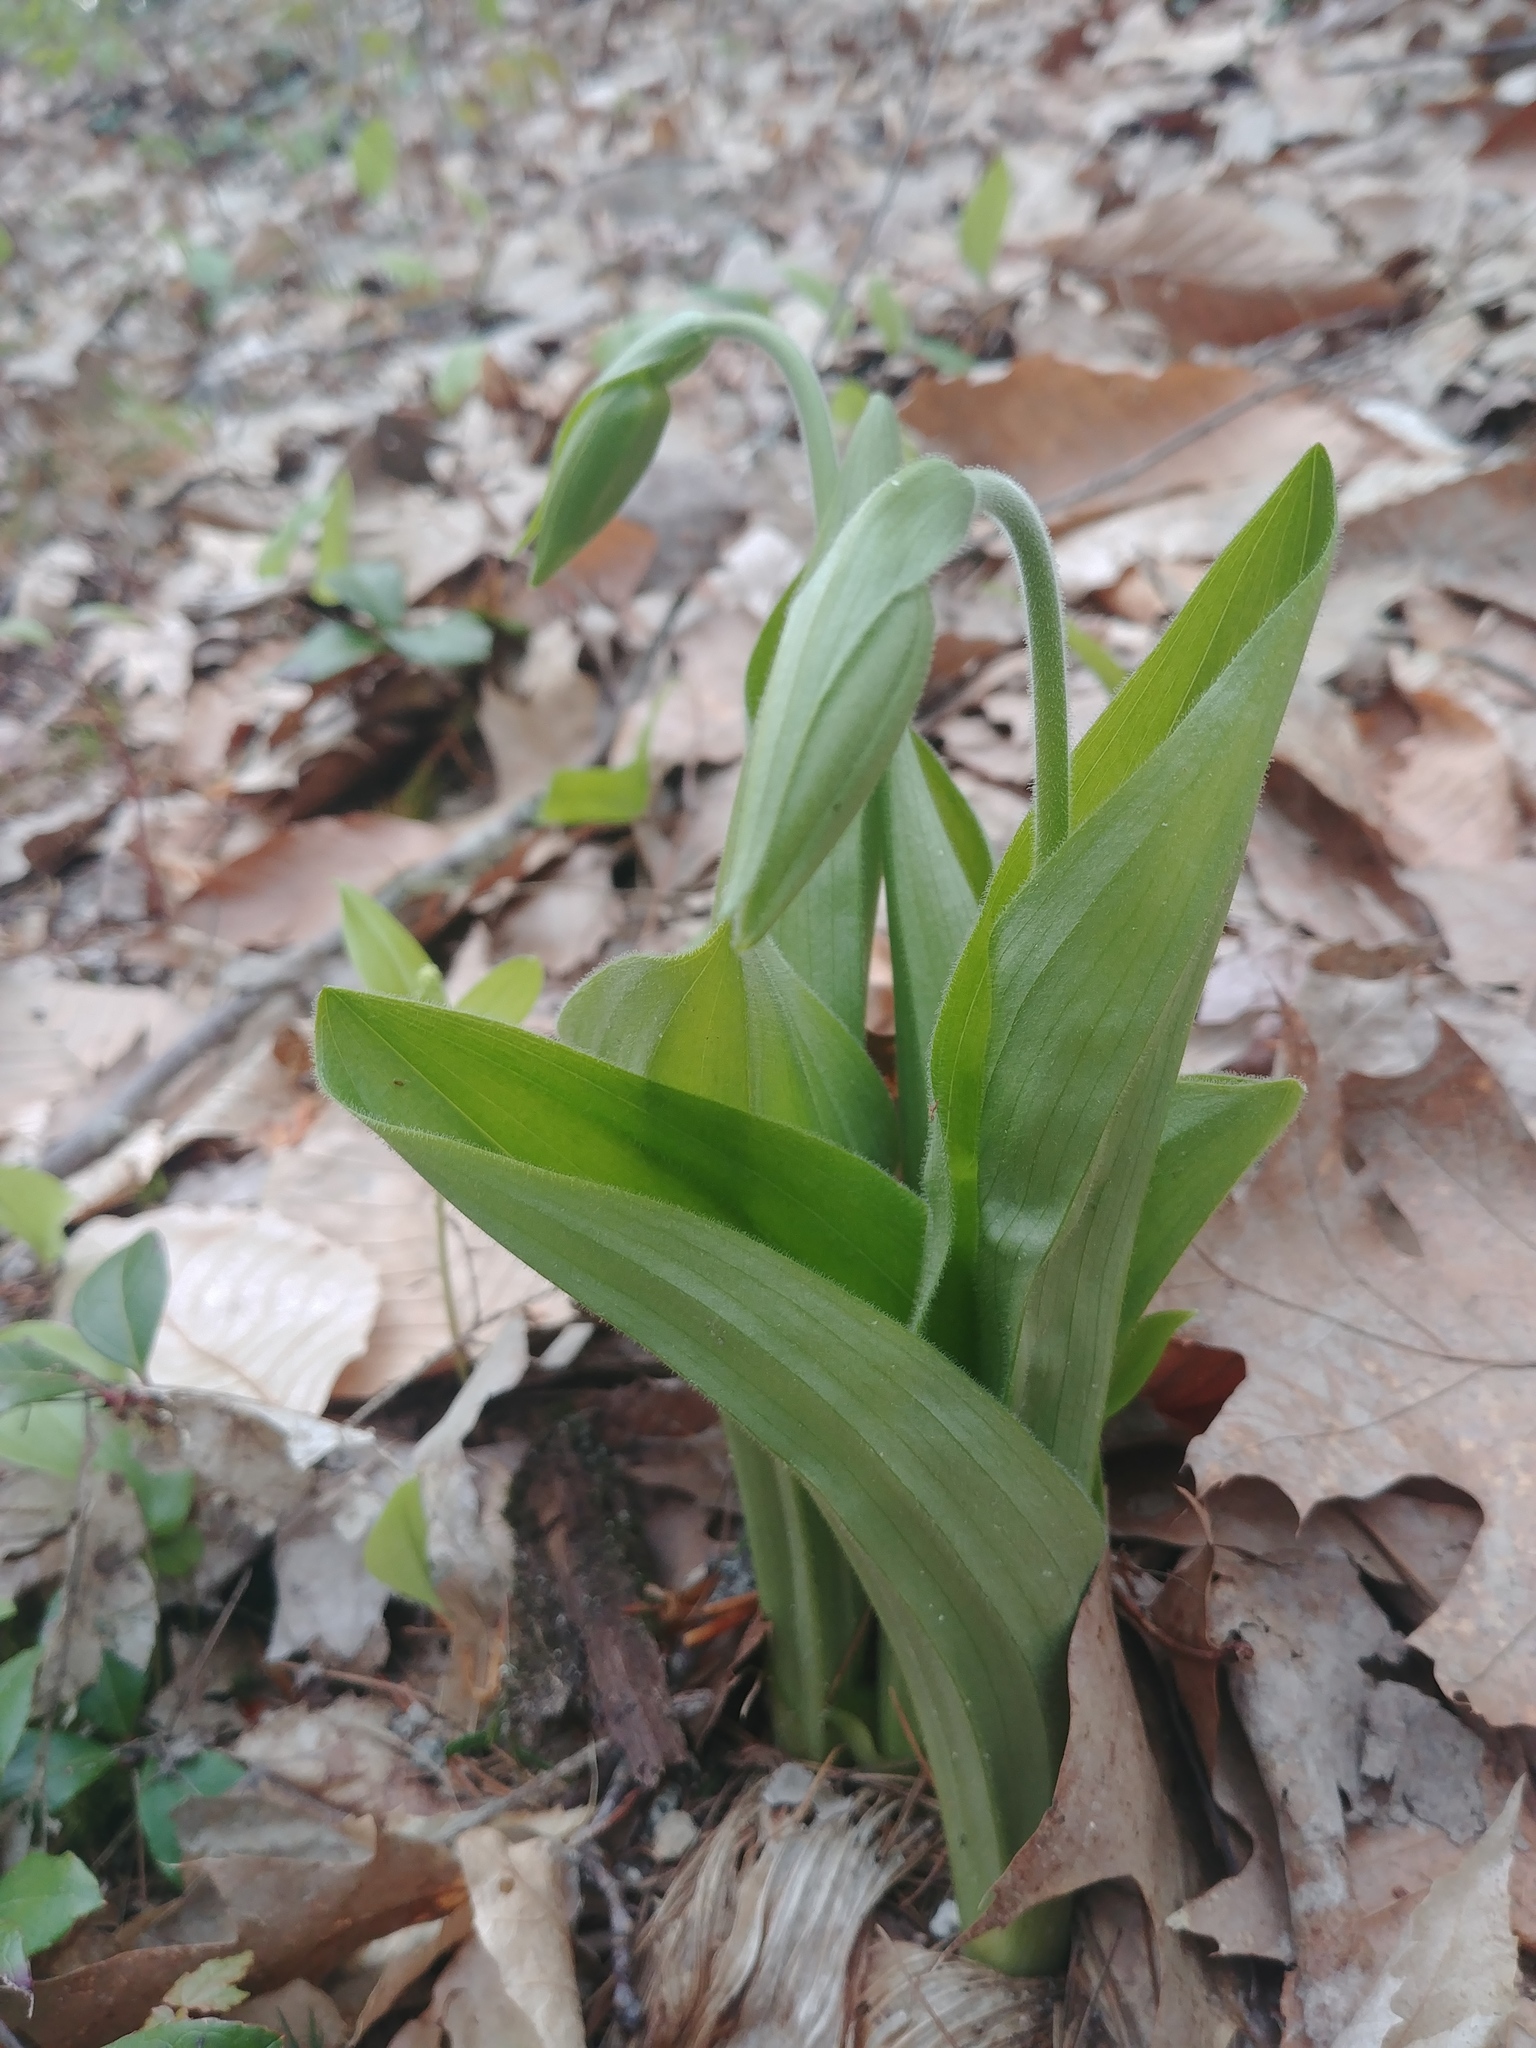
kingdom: Plantae
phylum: Tracheophyta
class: Liliopsida
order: Asparagales
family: Orchidaceae
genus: Cypripedium
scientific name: Cypripedium acaule
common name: Pink lady's-slipper
